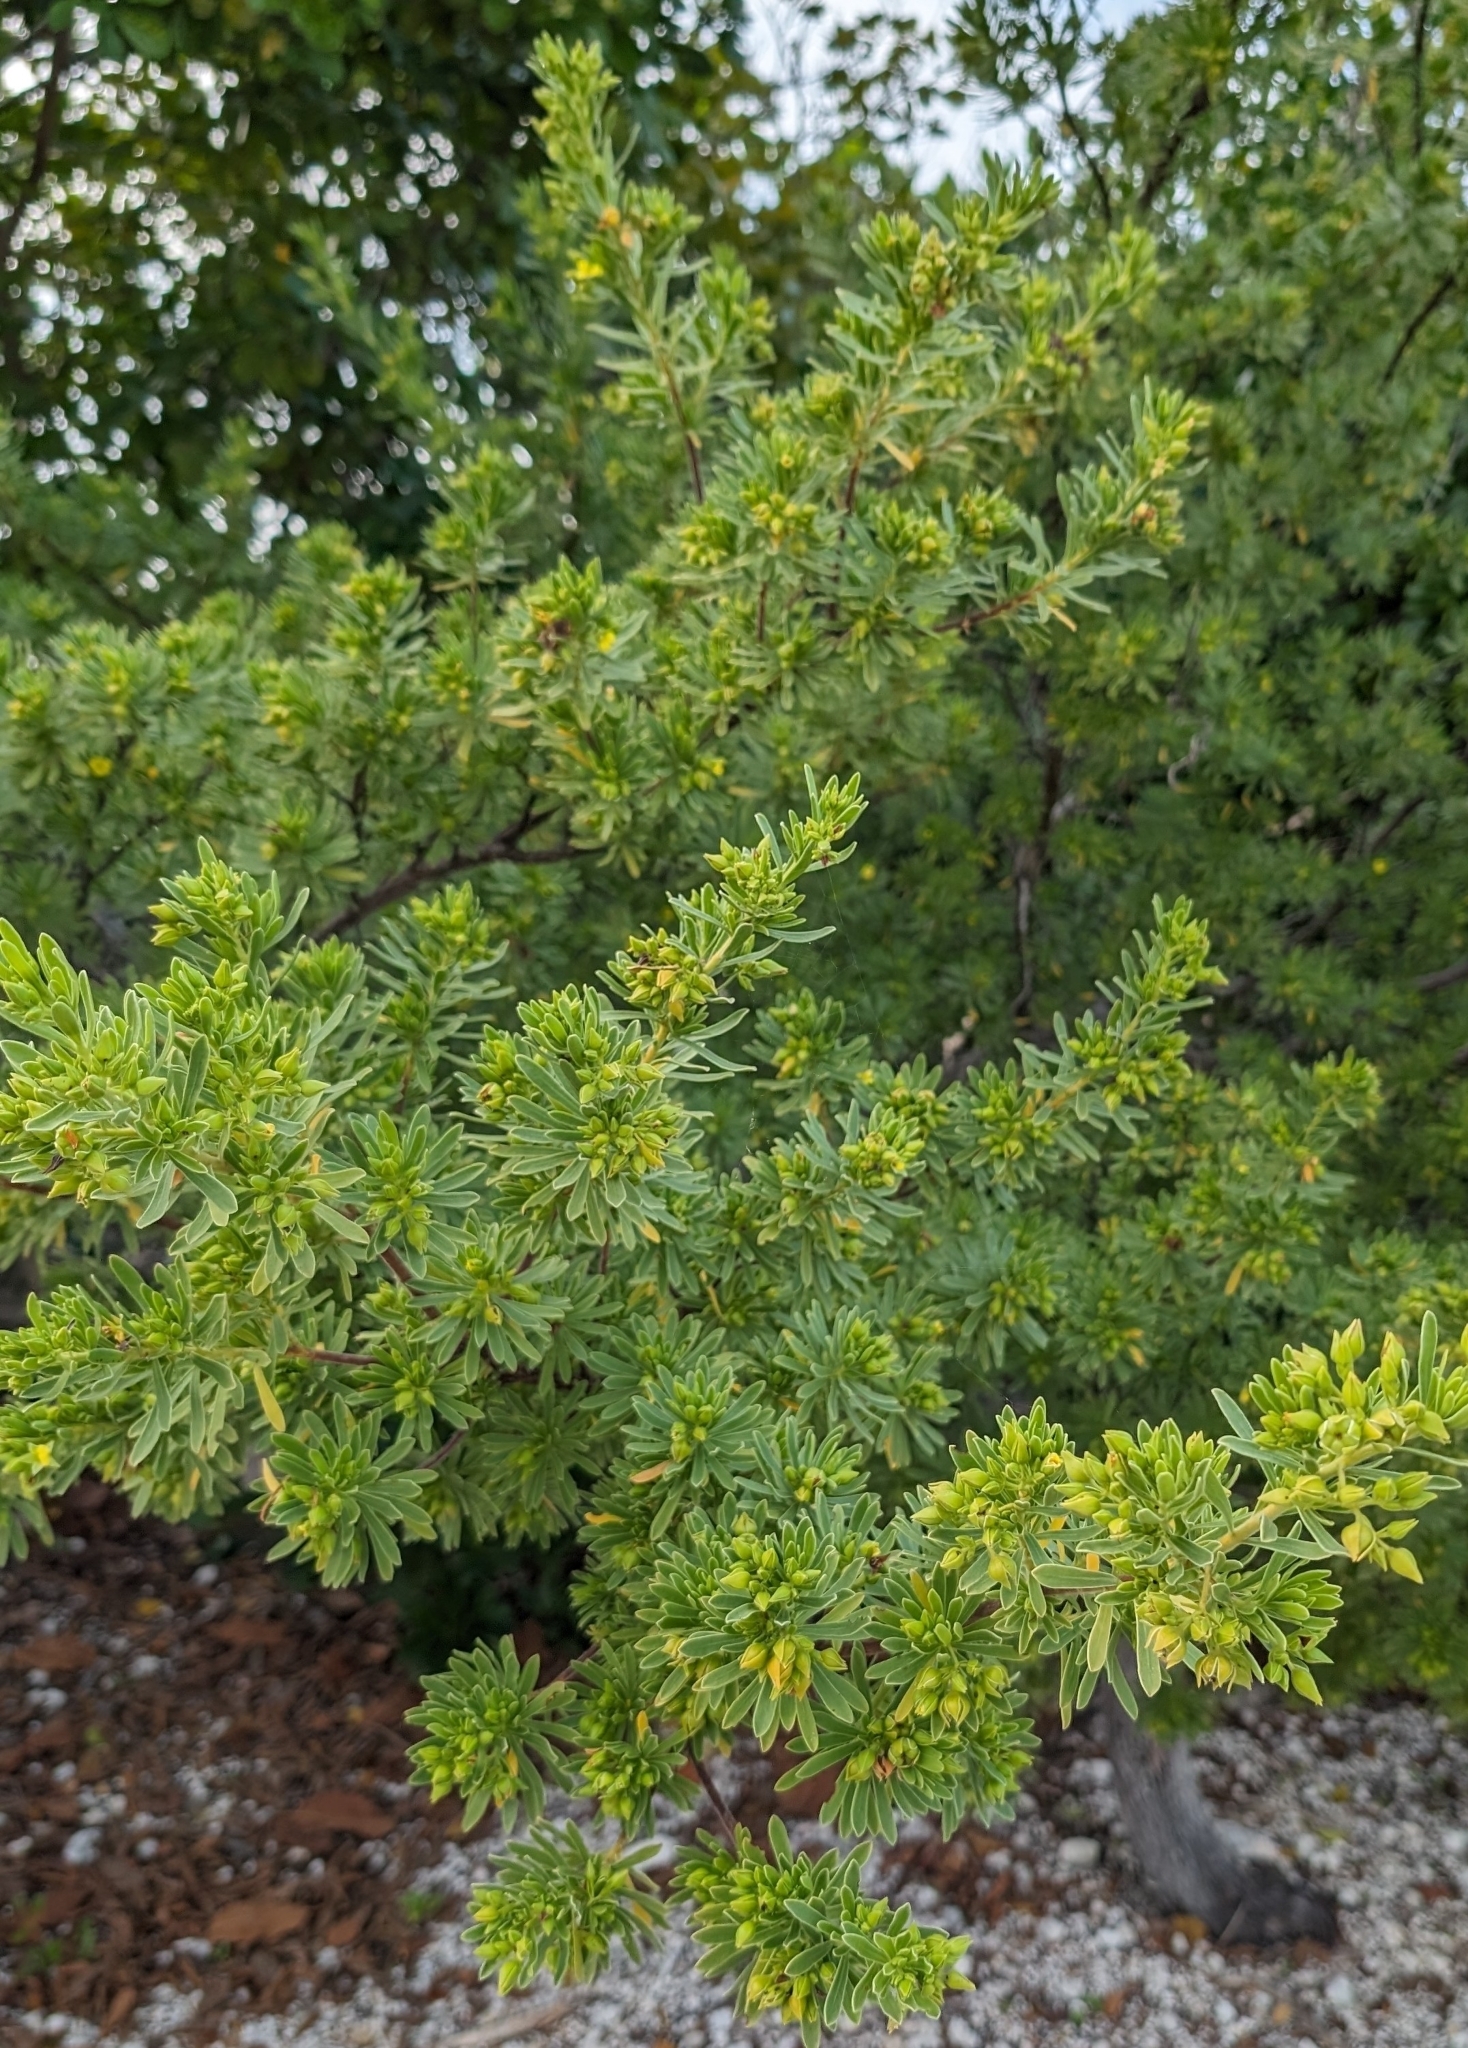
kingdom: Plantae
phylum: Tracheophyta
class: Magnoliopsida
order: Fabales
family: Surianaceae
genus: Suriana
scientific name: Suriana maritima
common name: Bay-cedar
